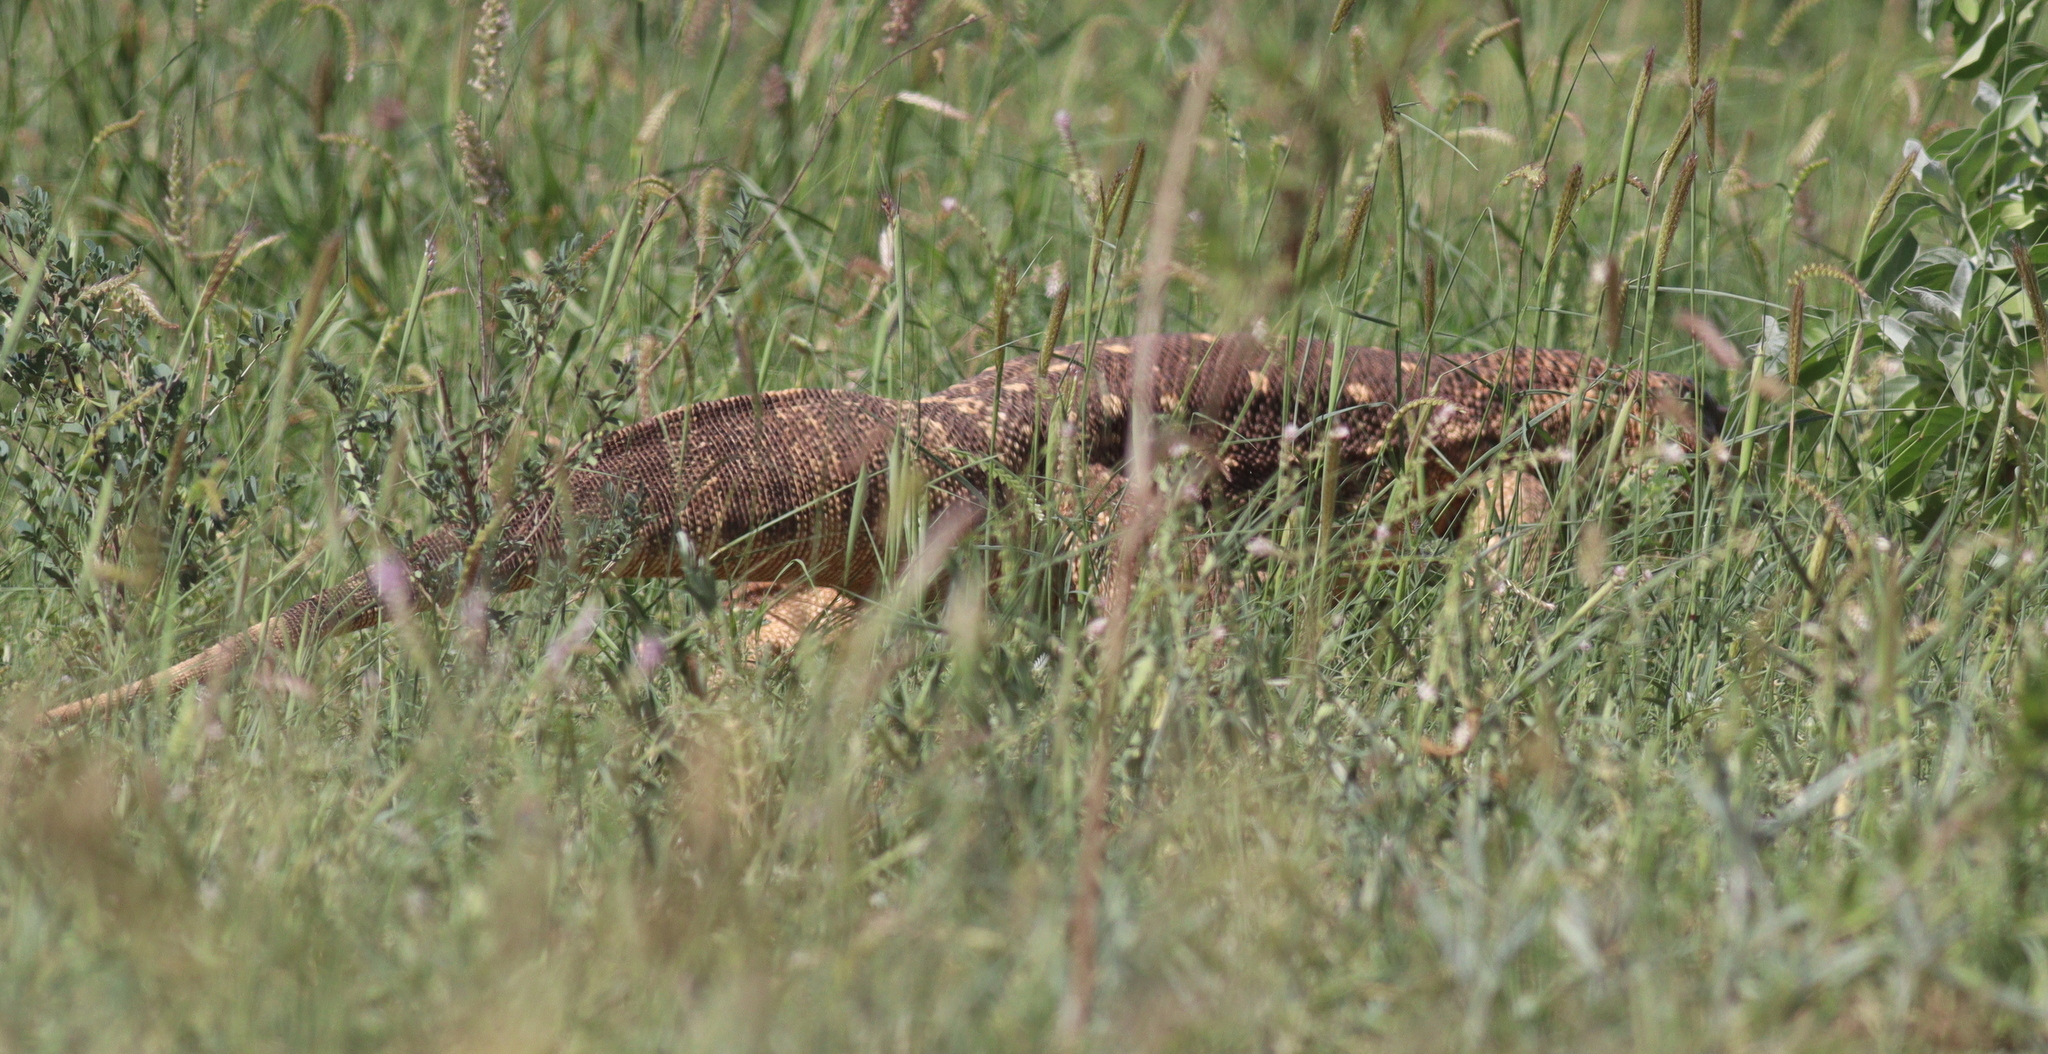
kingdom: Animalia
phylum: Chordata
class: Squamata
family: Varanidae
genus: Varanus
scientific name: Varanus albigularis
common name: White-throated monitor
